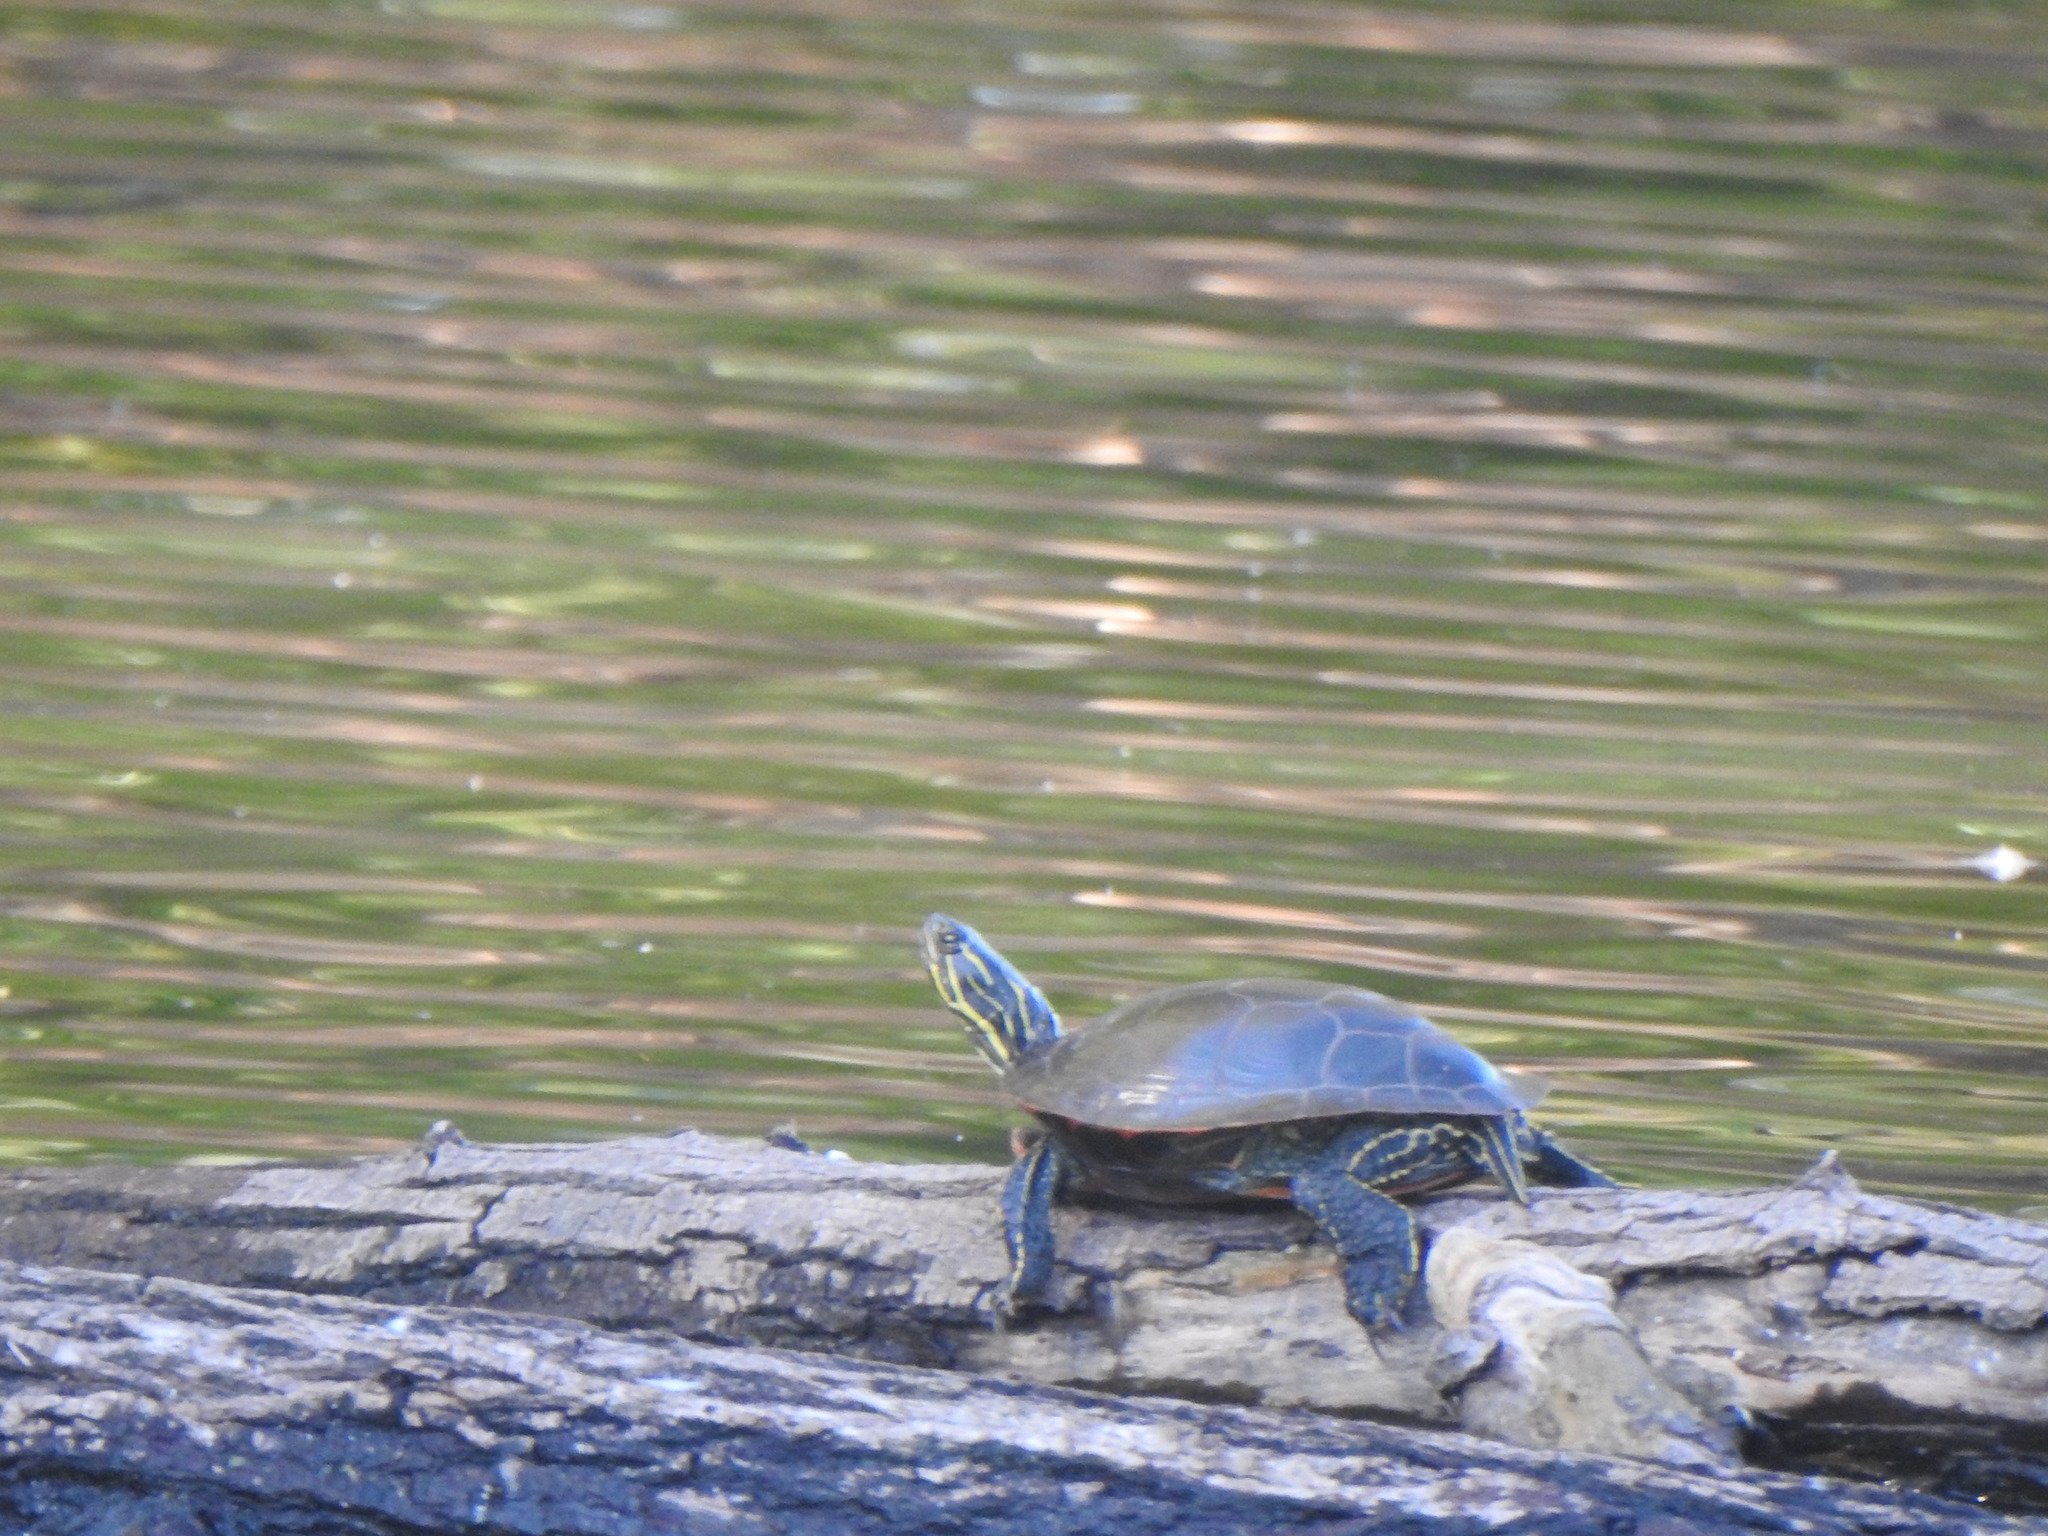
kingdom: Animalia
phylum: Chordata
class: Testudines
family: Emydidae
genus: Chrysemys
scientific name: Chrysemys picta
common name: Painted turtle
